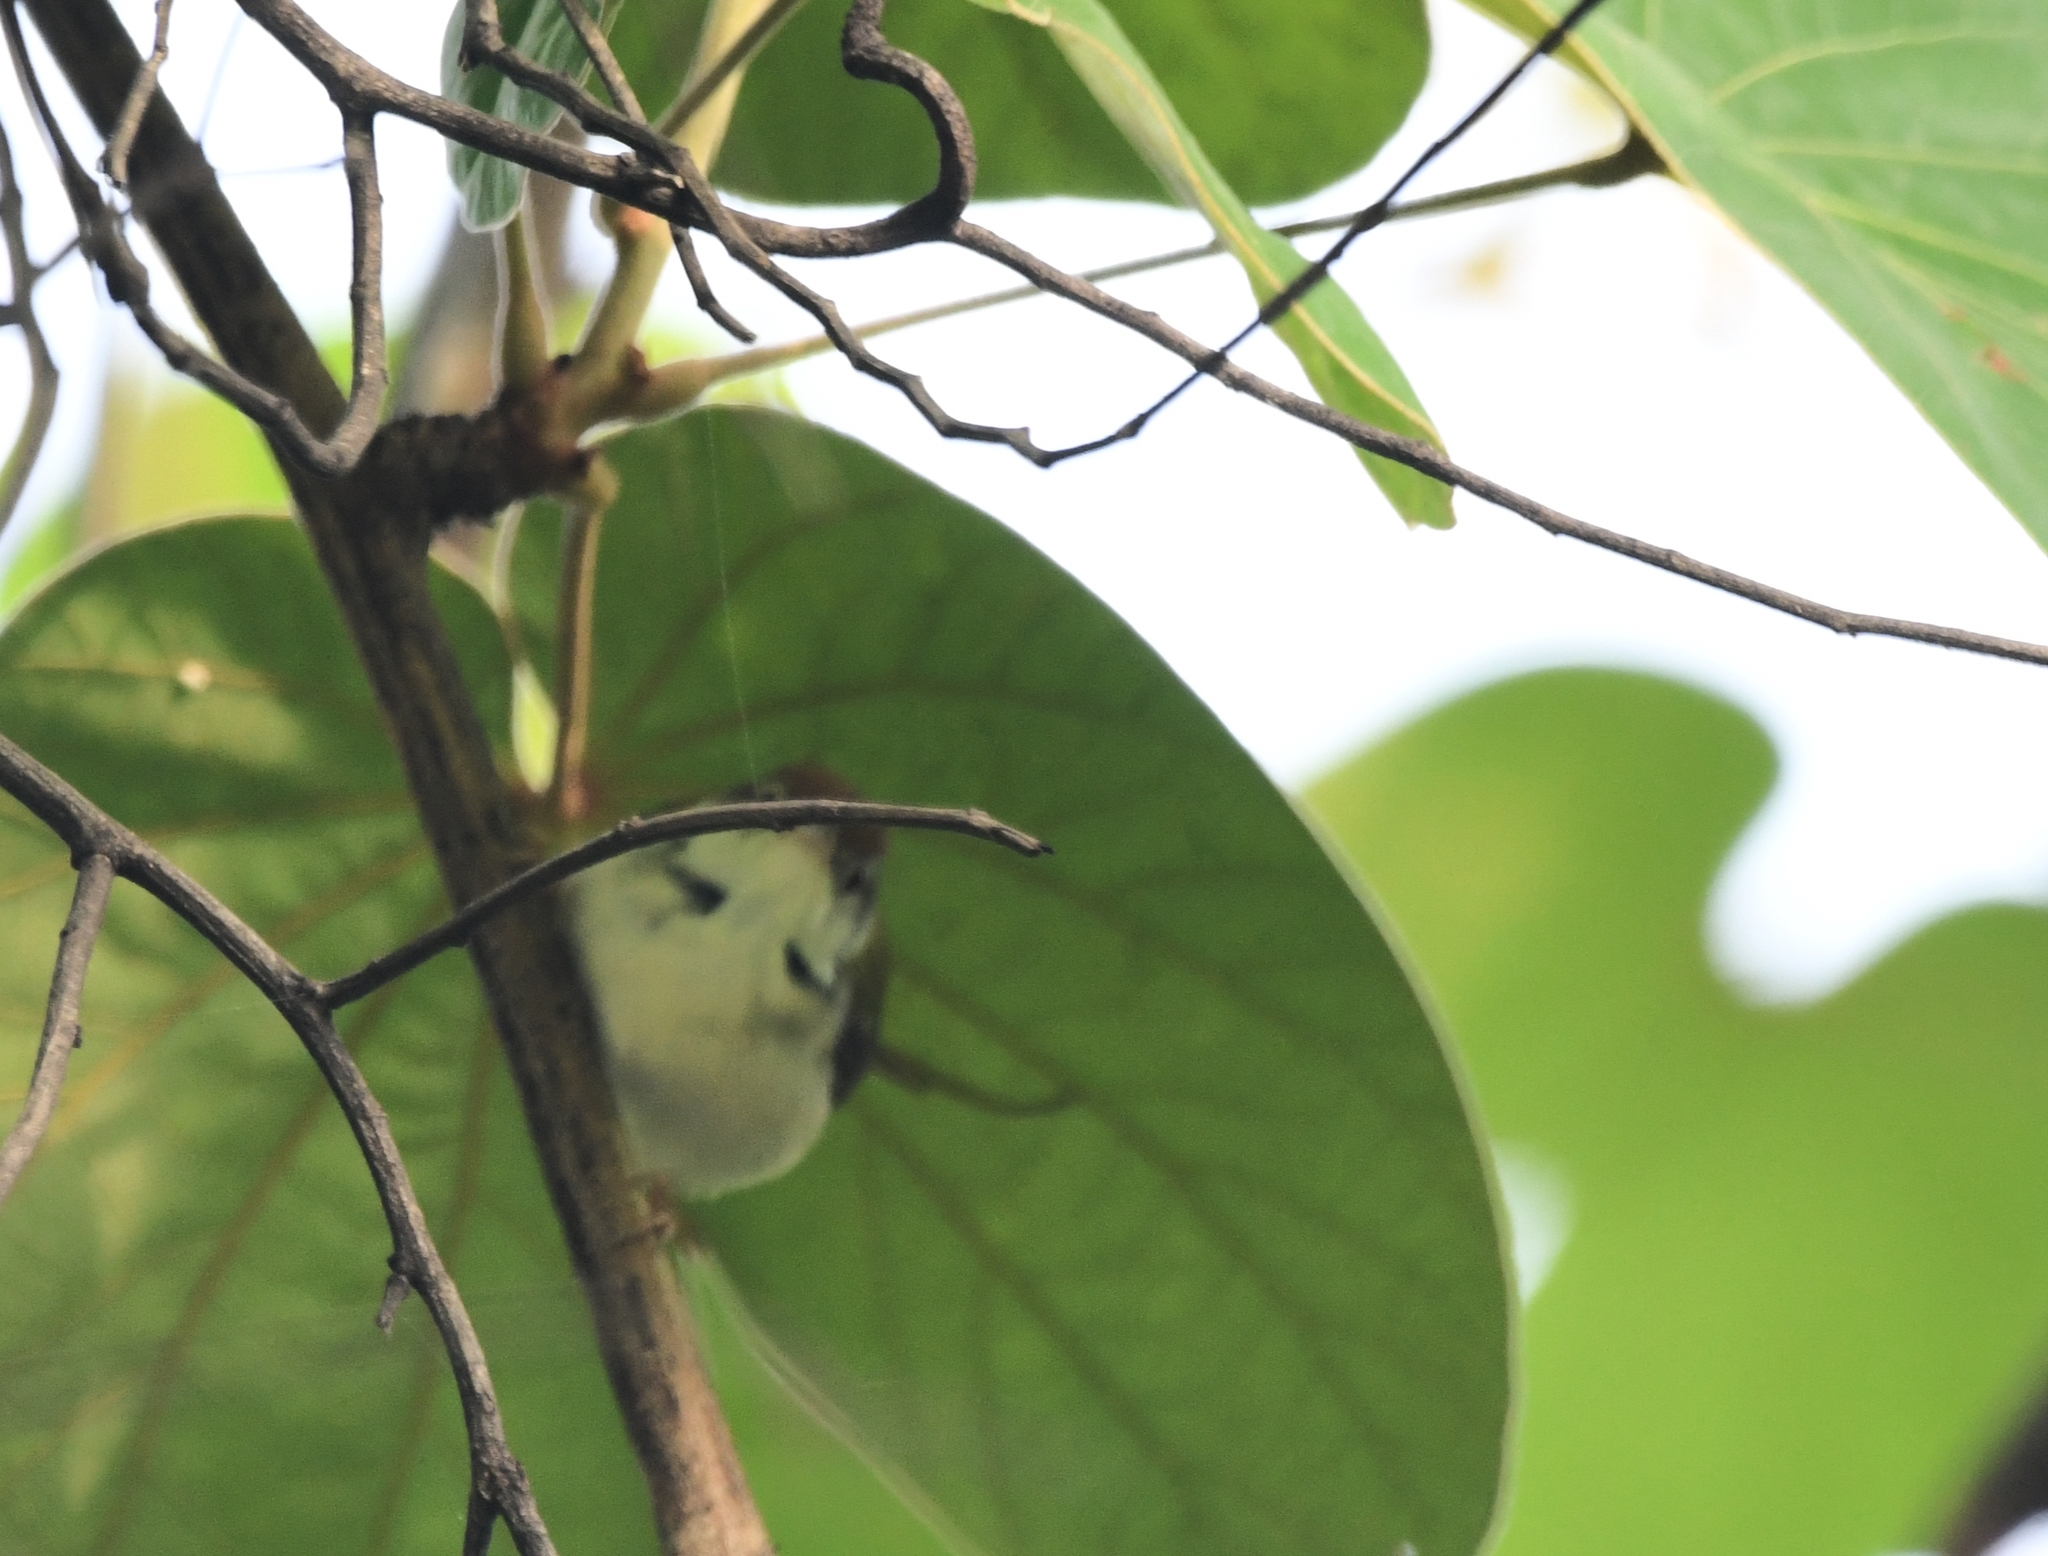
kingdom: Animalia
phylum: Chordata
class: Aves
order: Passeriformes
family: Cisticolidae
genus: Orthotomus
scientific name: Orthotomus sutorius
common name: Common tailorbird
